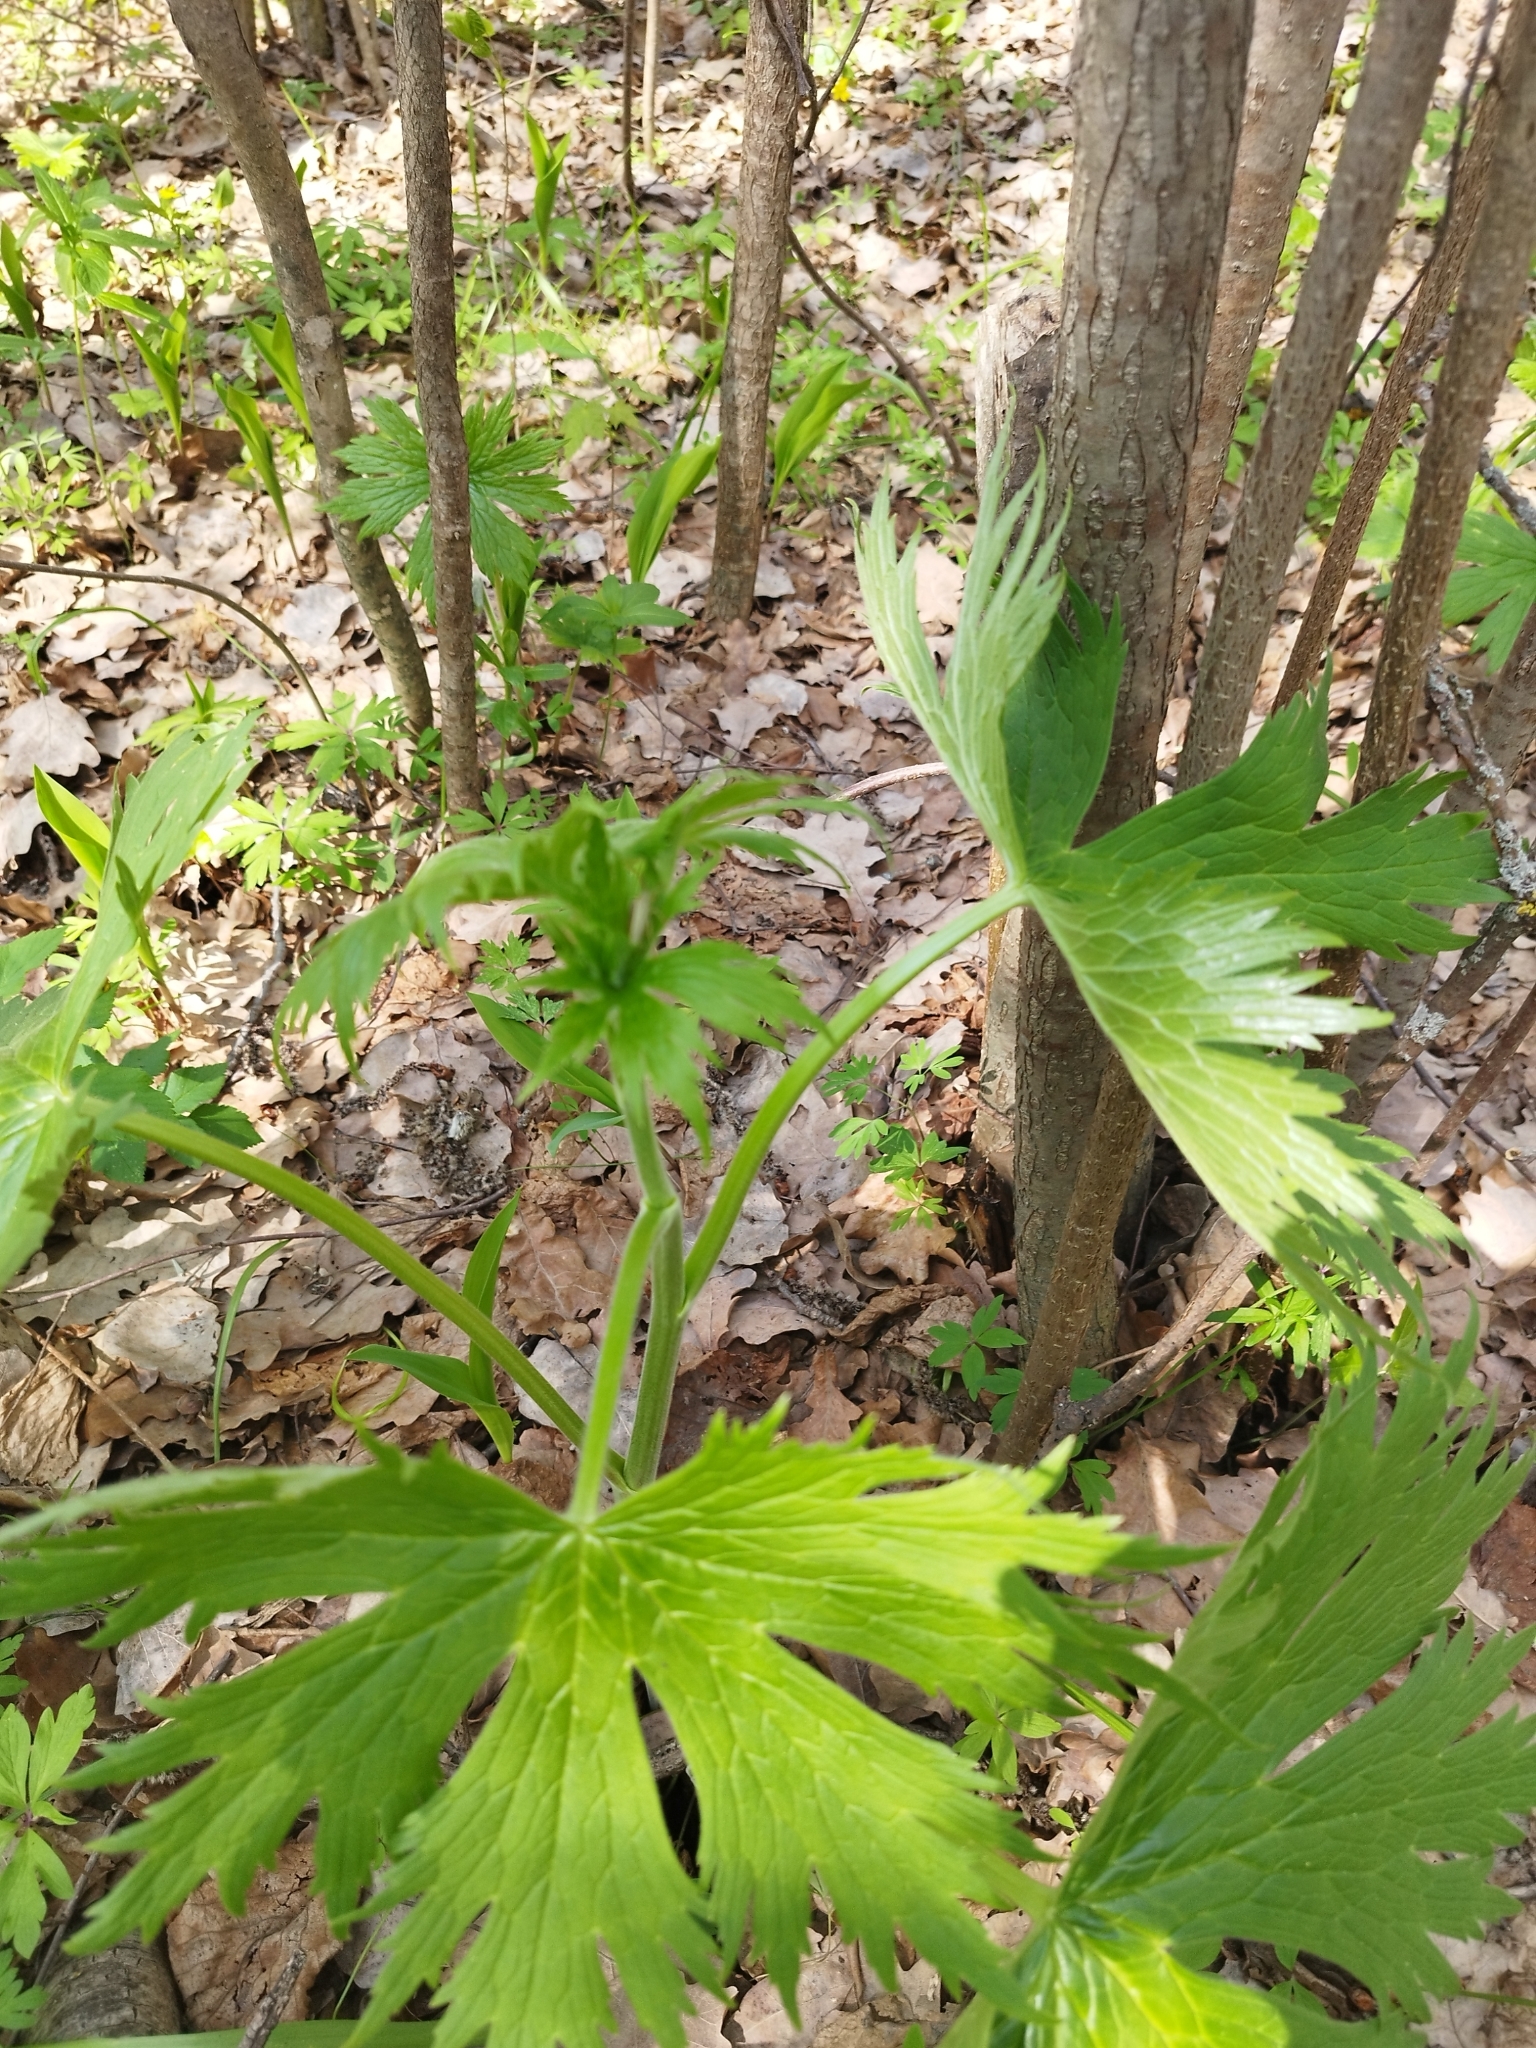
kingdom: Plantae
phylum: Tracheophyta
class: Magnoliopsida
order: Ranunculales
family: Ranunculaceae
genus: Aconitum
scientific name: Aconitum septentrionale
